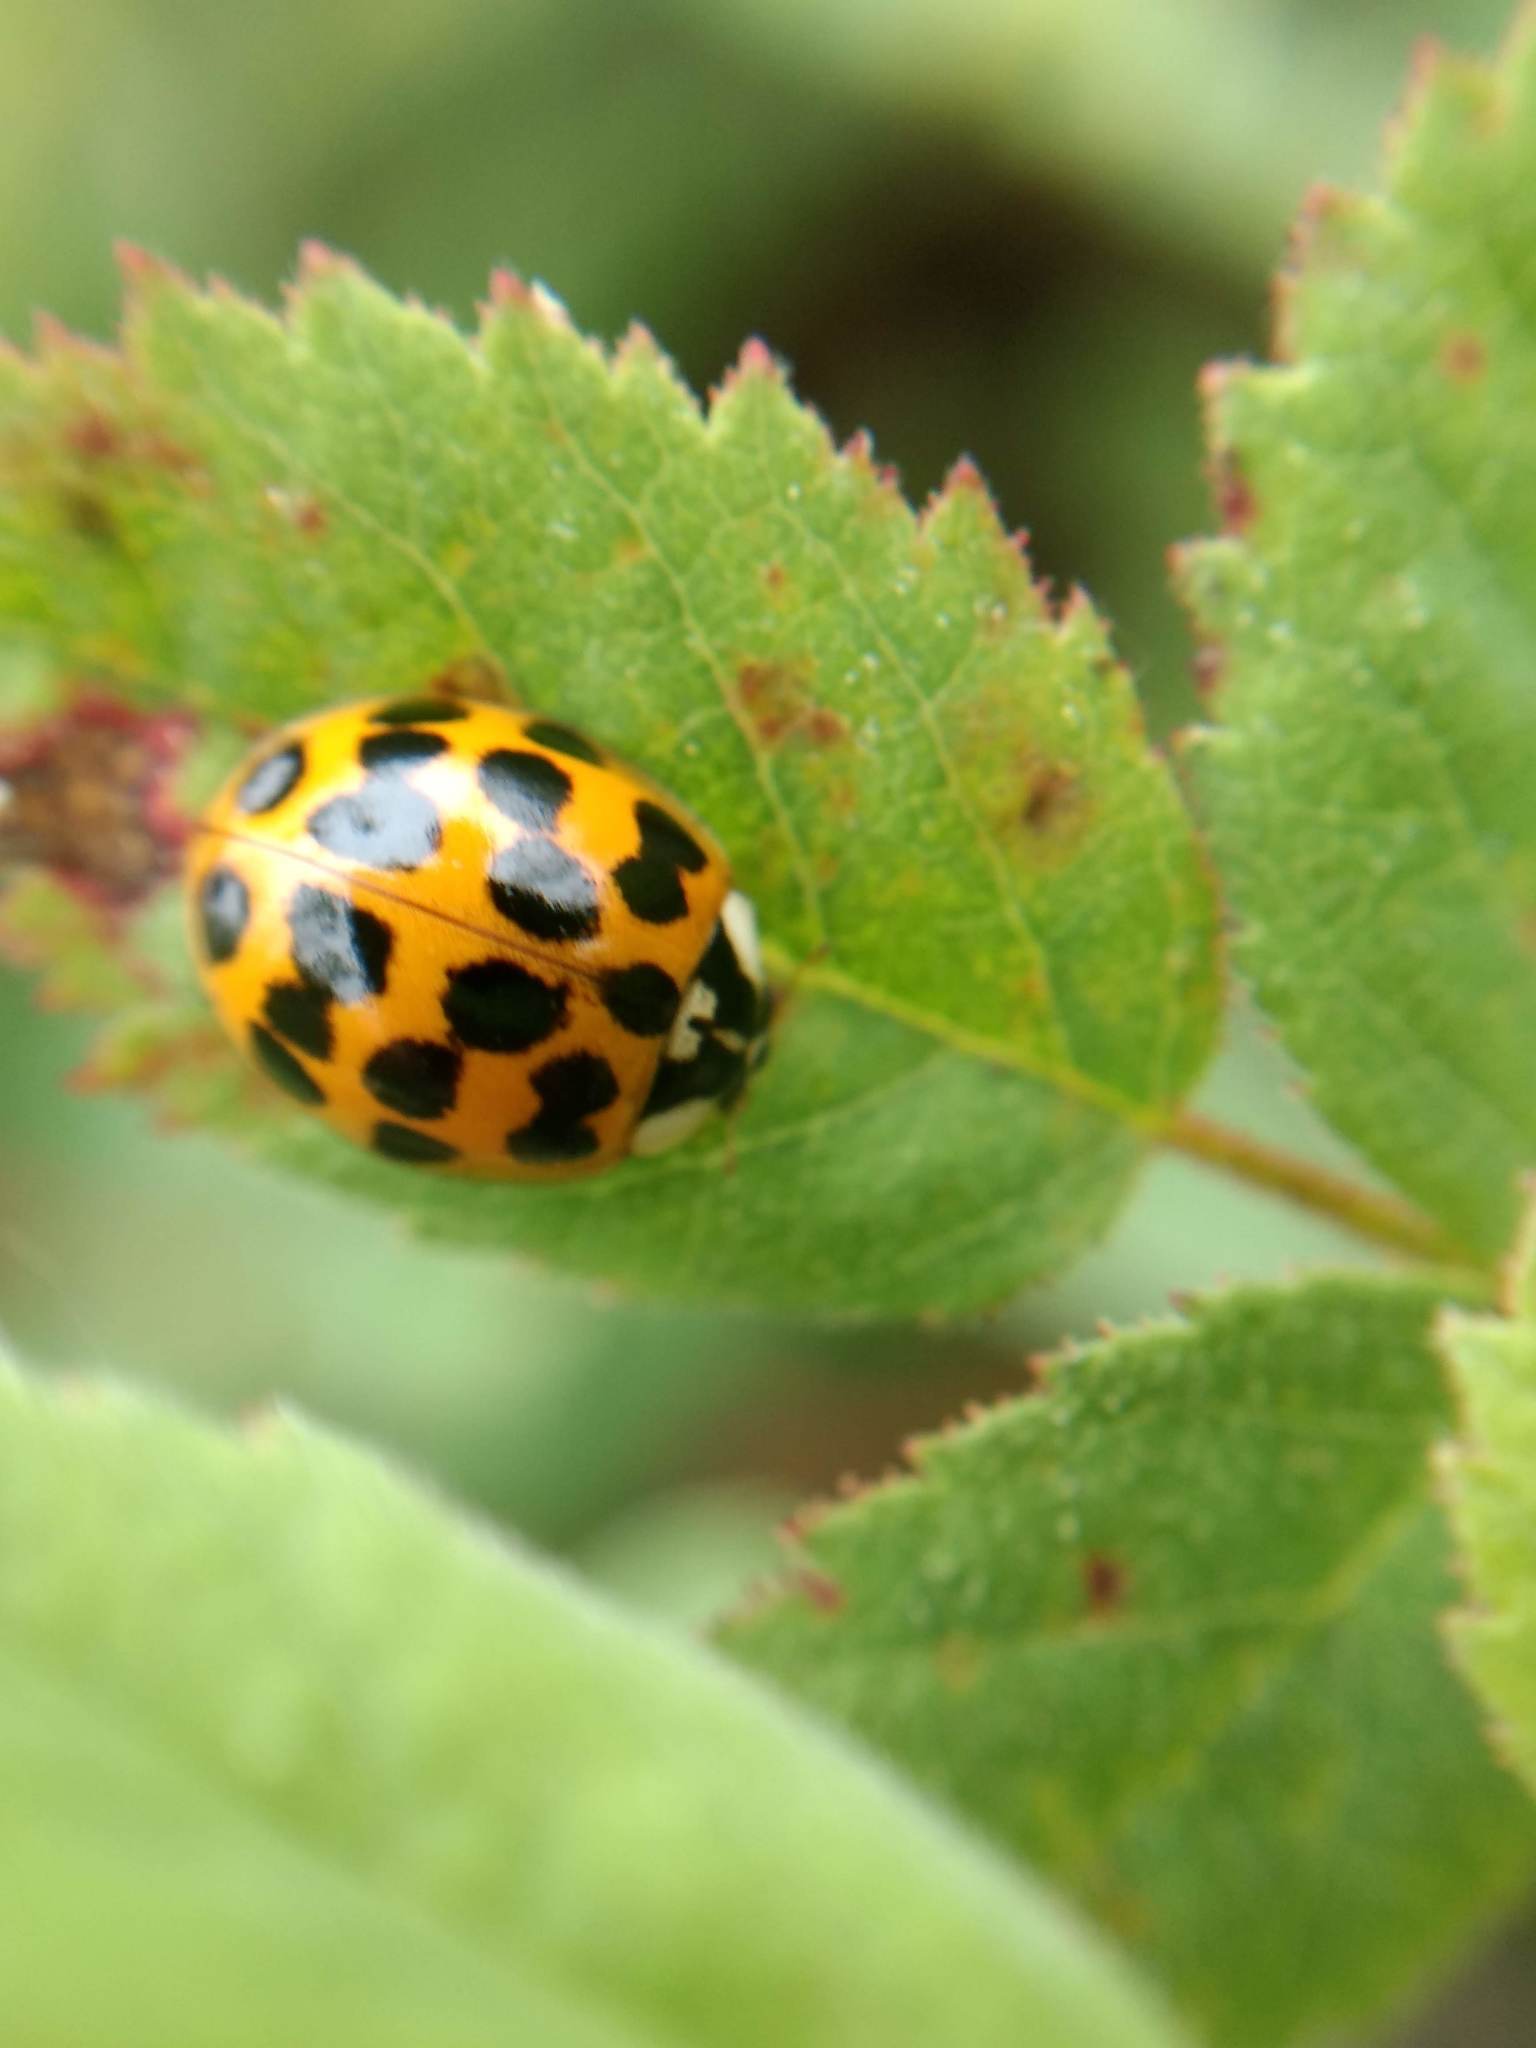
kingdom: Animalia
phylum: Arthropoda
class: Insecta
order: Coleoptera
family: Coccinellidae
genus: Harmonia
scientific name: Harmonia axyridis
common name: Harlequin ladybird
